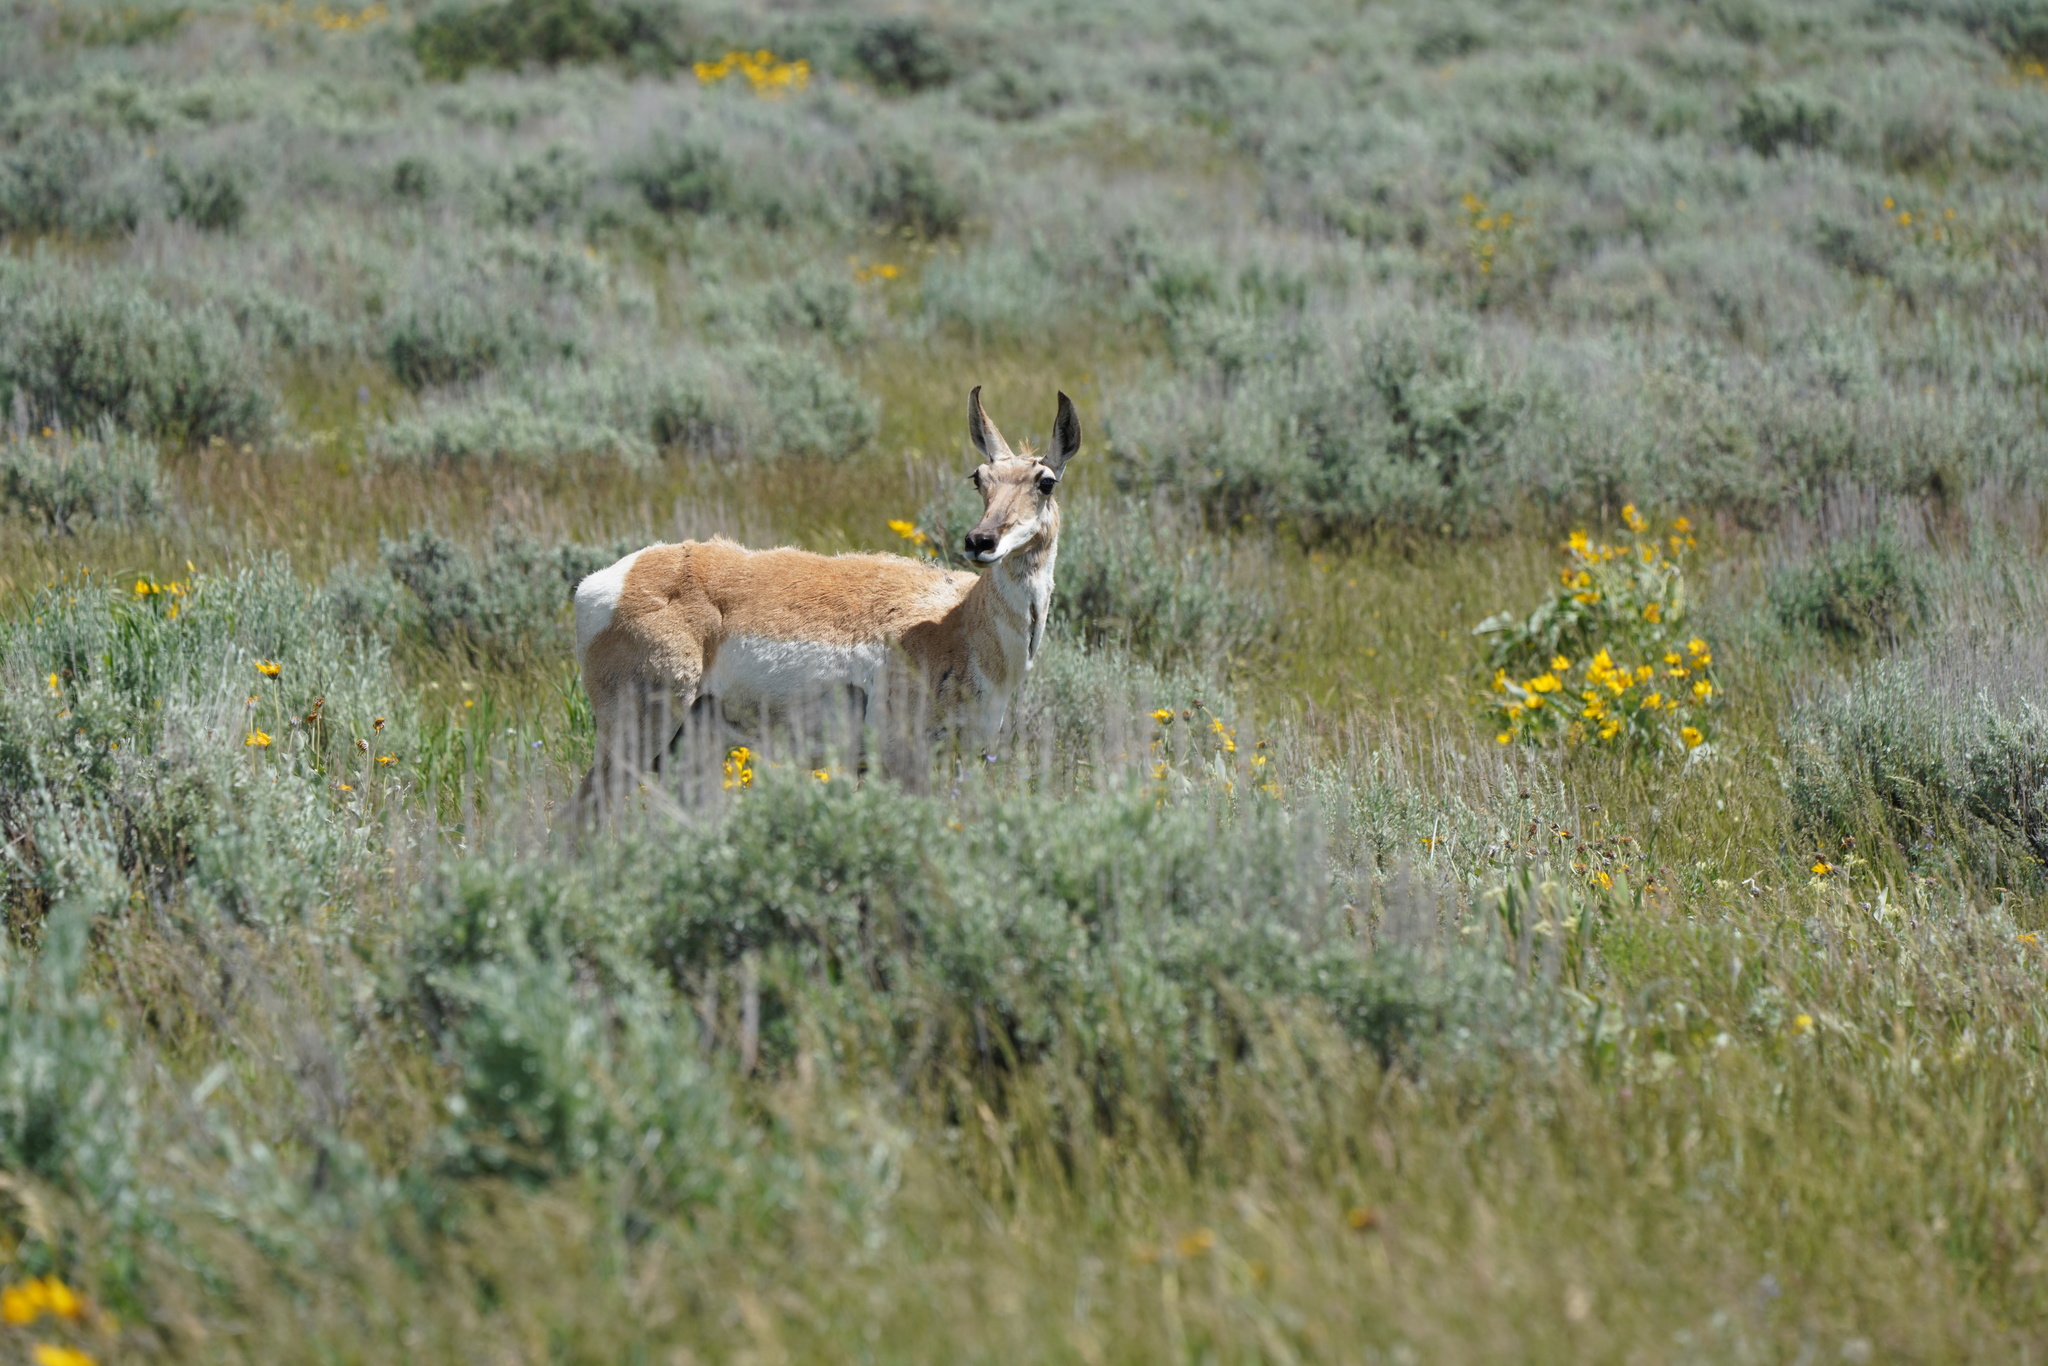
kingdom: Animalia
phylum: Chordata
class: Mammalia
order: Artiodactyla
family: Antilocapridae
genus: Antilocapra
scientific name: Antilocapra americana
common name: Pronghorn
